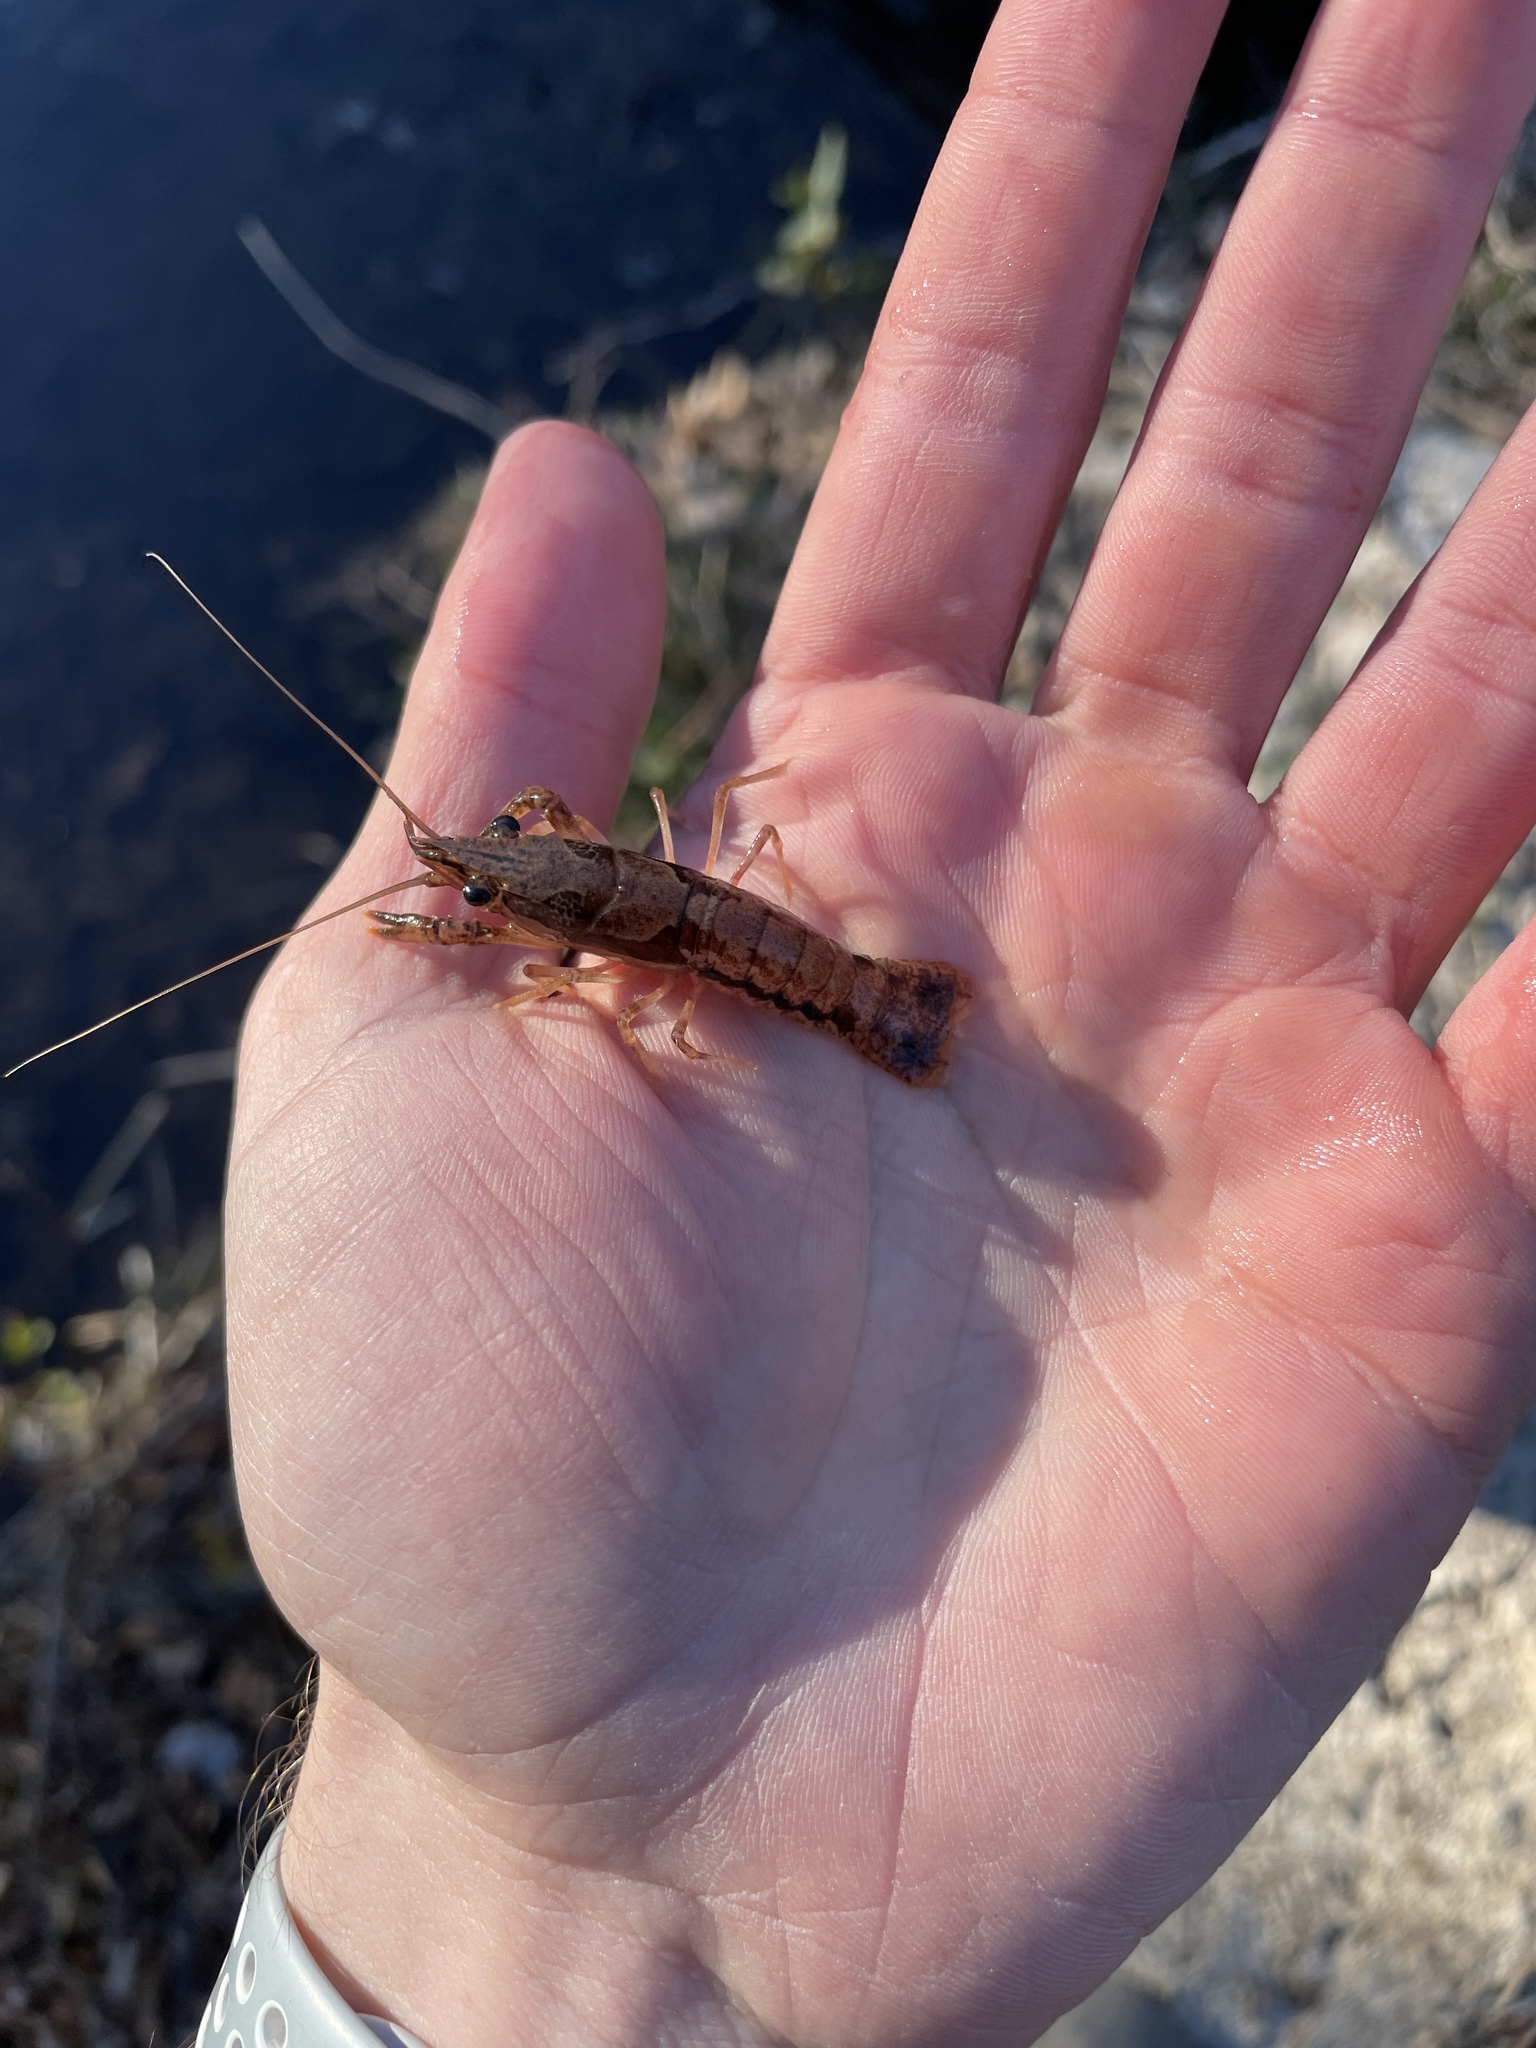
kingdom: Animalia
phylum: Arthropoda
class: Malacostraca
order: Decapoda
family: Cambaridae
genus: Procambarus
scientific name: Procambarus vioscai
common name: Percy's creek crayfish
